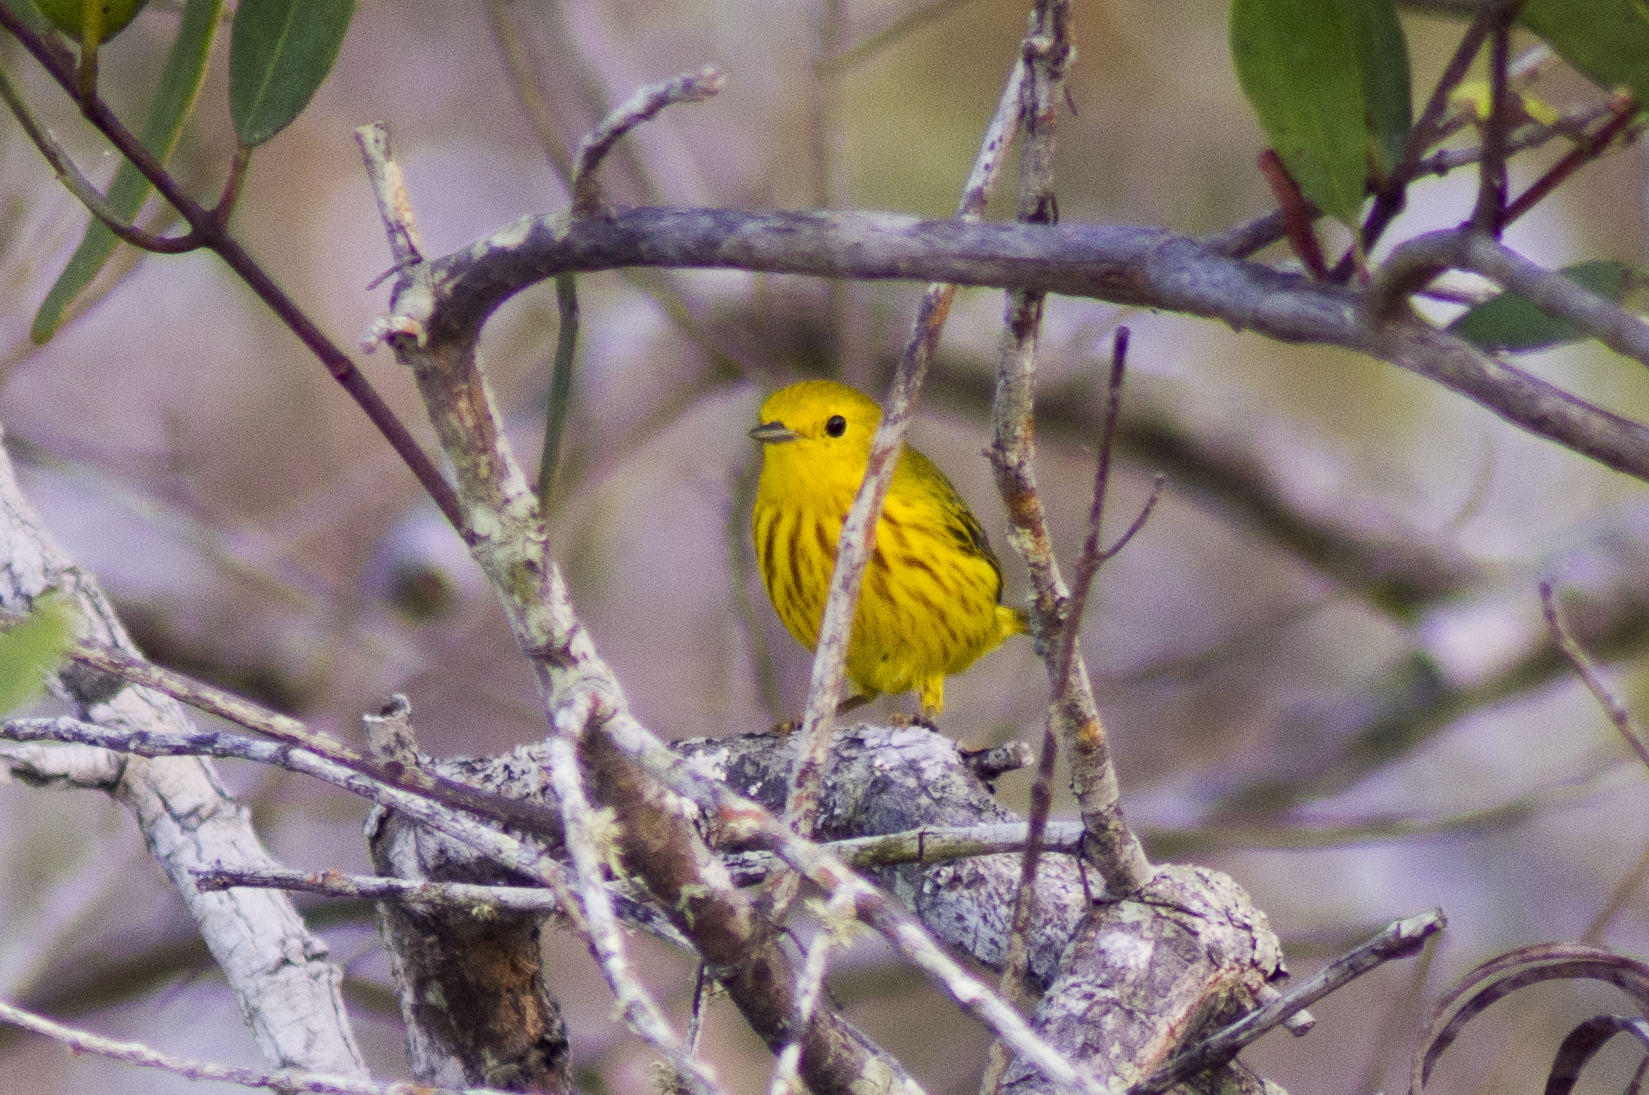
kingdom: Animalia
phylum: Chordata
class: Aves
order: Passeriformes
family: Parulidae
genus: Setophaga
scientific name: Setophaga petechia
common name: Yellow warbler
